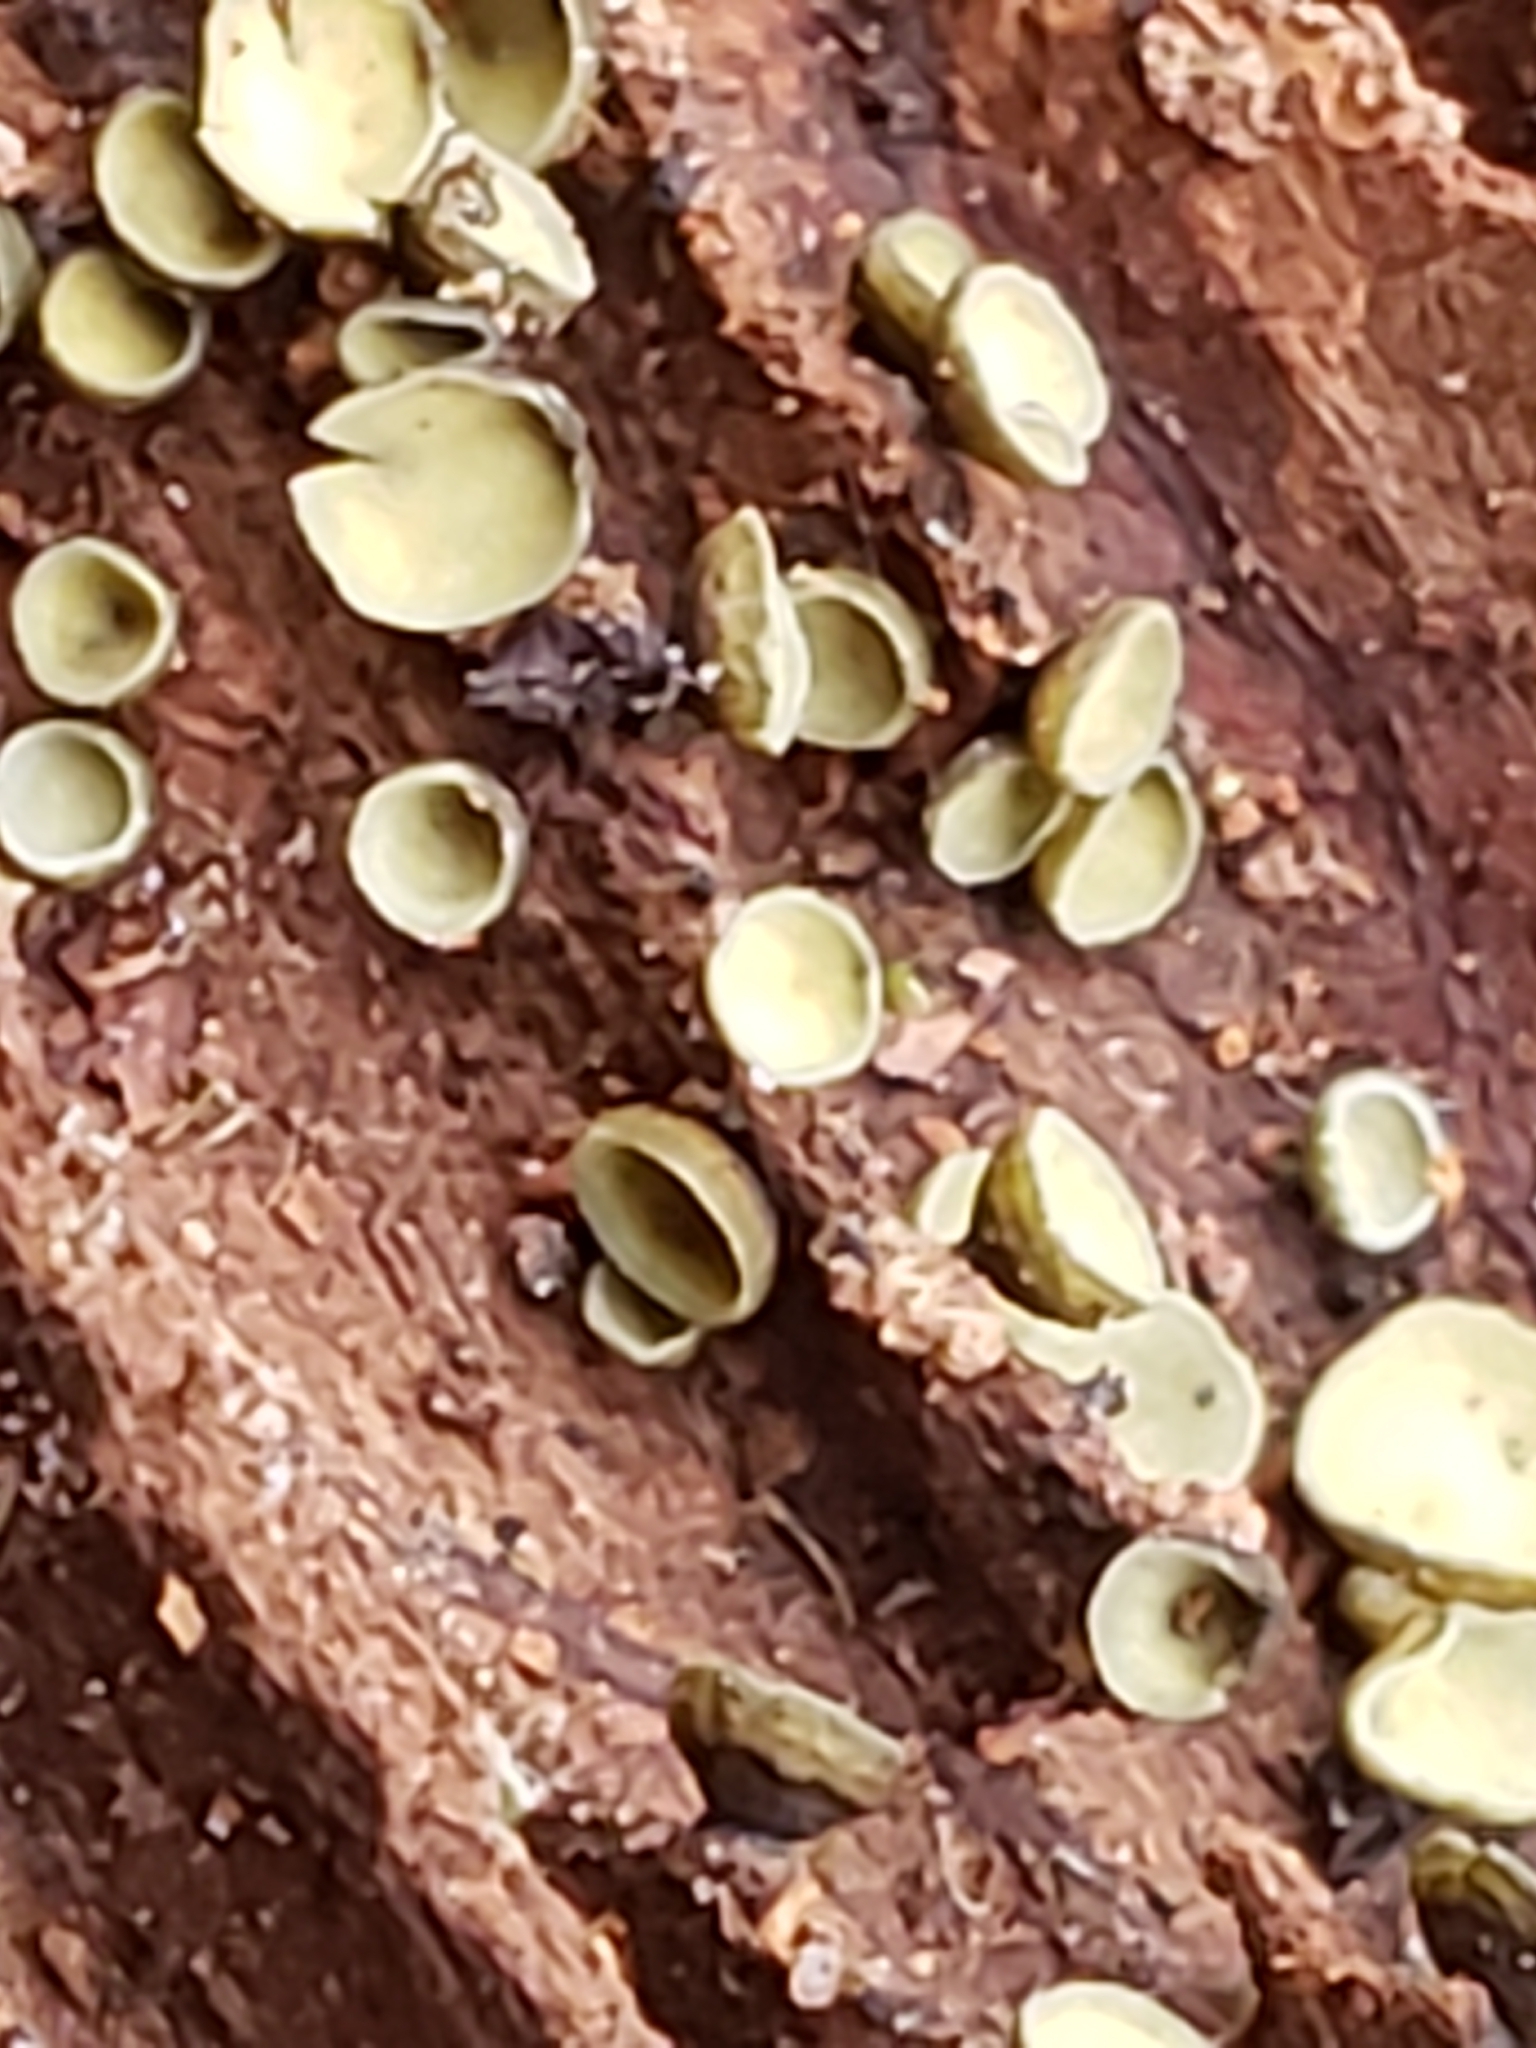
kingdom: Fungi
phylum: Ascomycota
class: Leotiomycetes
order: Helotiales
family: Chlorospleniaceae
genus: Chlorosplenium
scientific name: Chlorosplenium chlora
